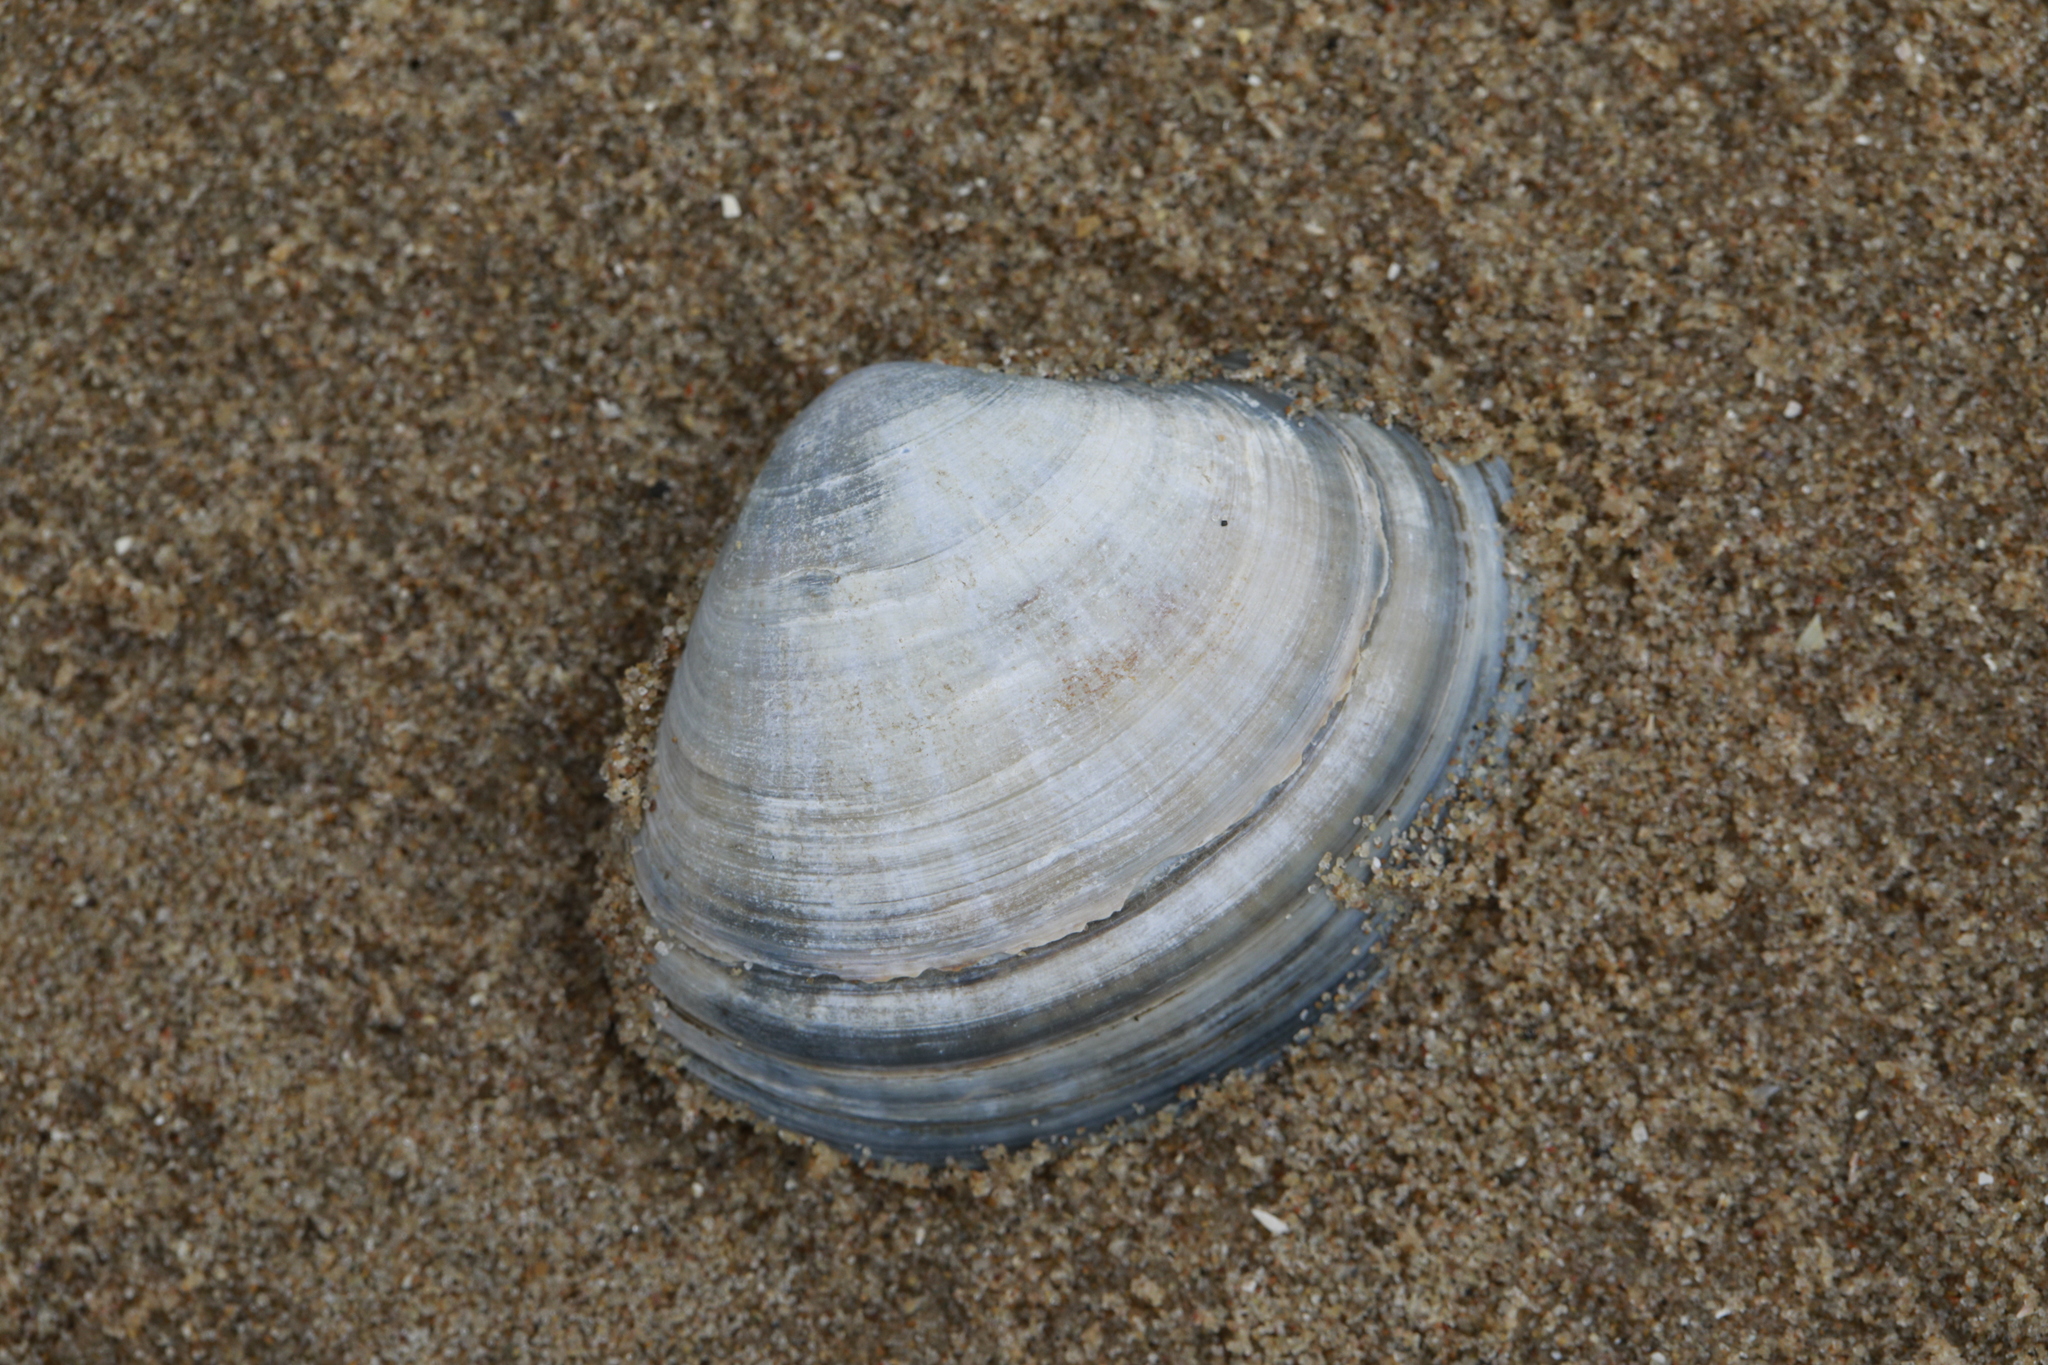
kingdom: Animalia
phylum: Mollusca
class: Bivalvia
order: Venerida
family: Mactridae
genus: Mactra
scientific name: Mactra stultorum
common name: Rayed trough shell
